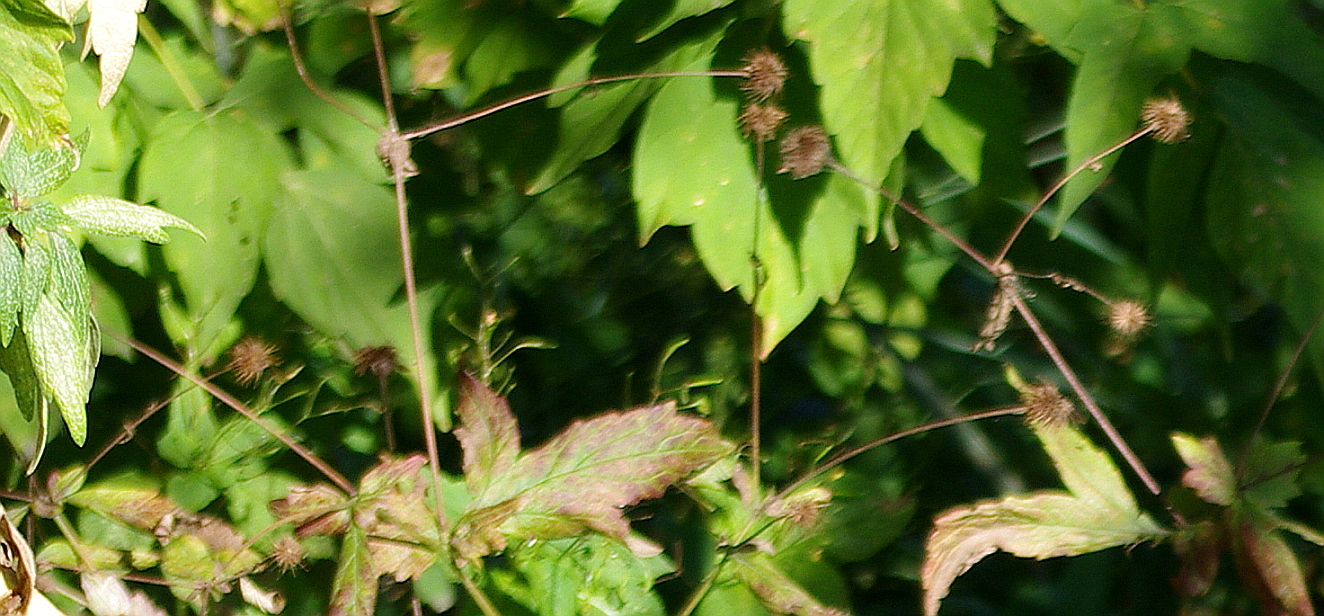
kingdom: Plantae
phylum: Tracheophyta
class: Magnoliopsida
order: Rosales
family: Rosaceae
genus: Geum
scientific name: Geum urbanum
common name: Wood avens
